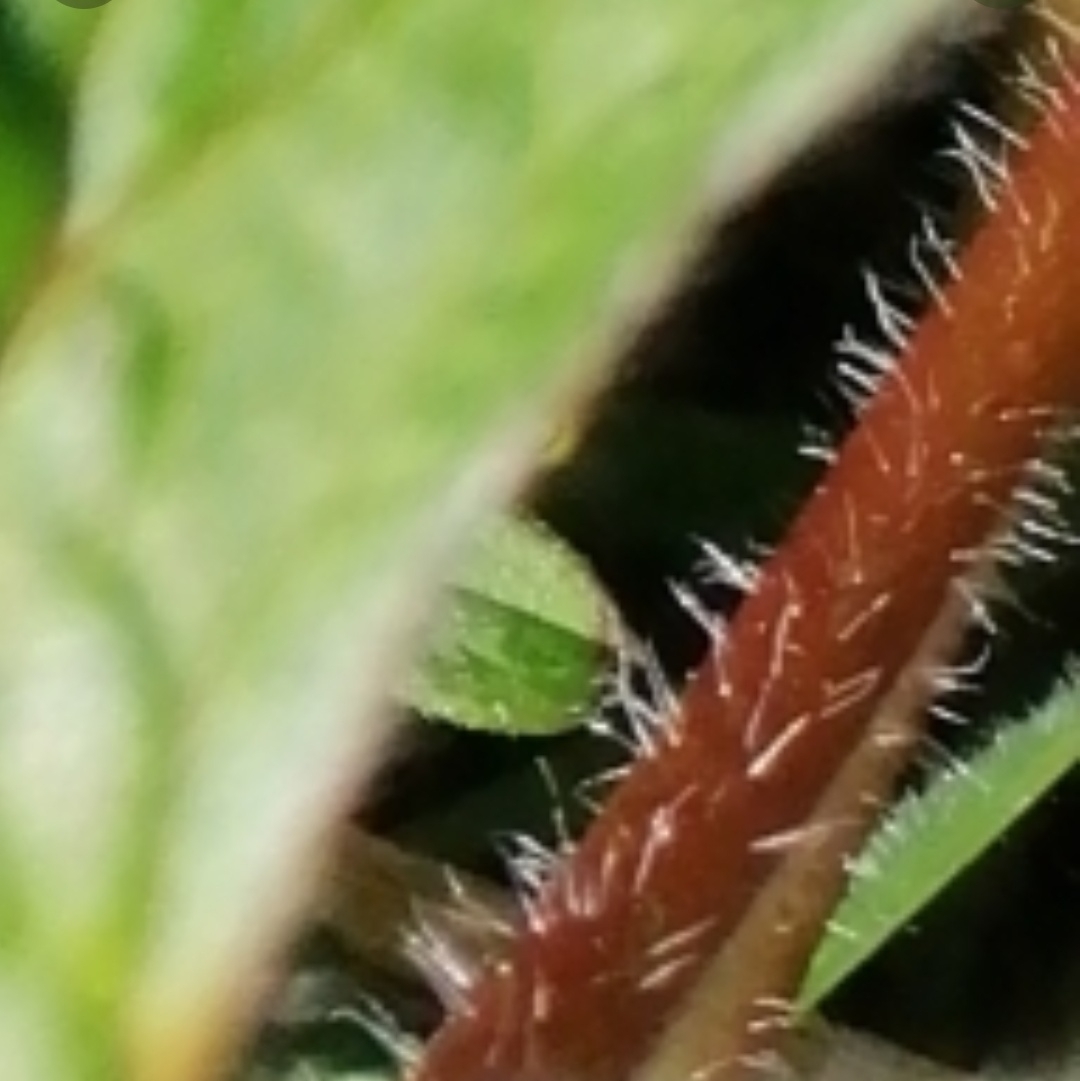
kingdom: Plantae
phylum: Tracheophyta
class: Magnoliopsida
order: Geraniales
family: Geraniaceae
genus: Geranium
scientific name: Geranium solanderi
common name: Solander's geranium
